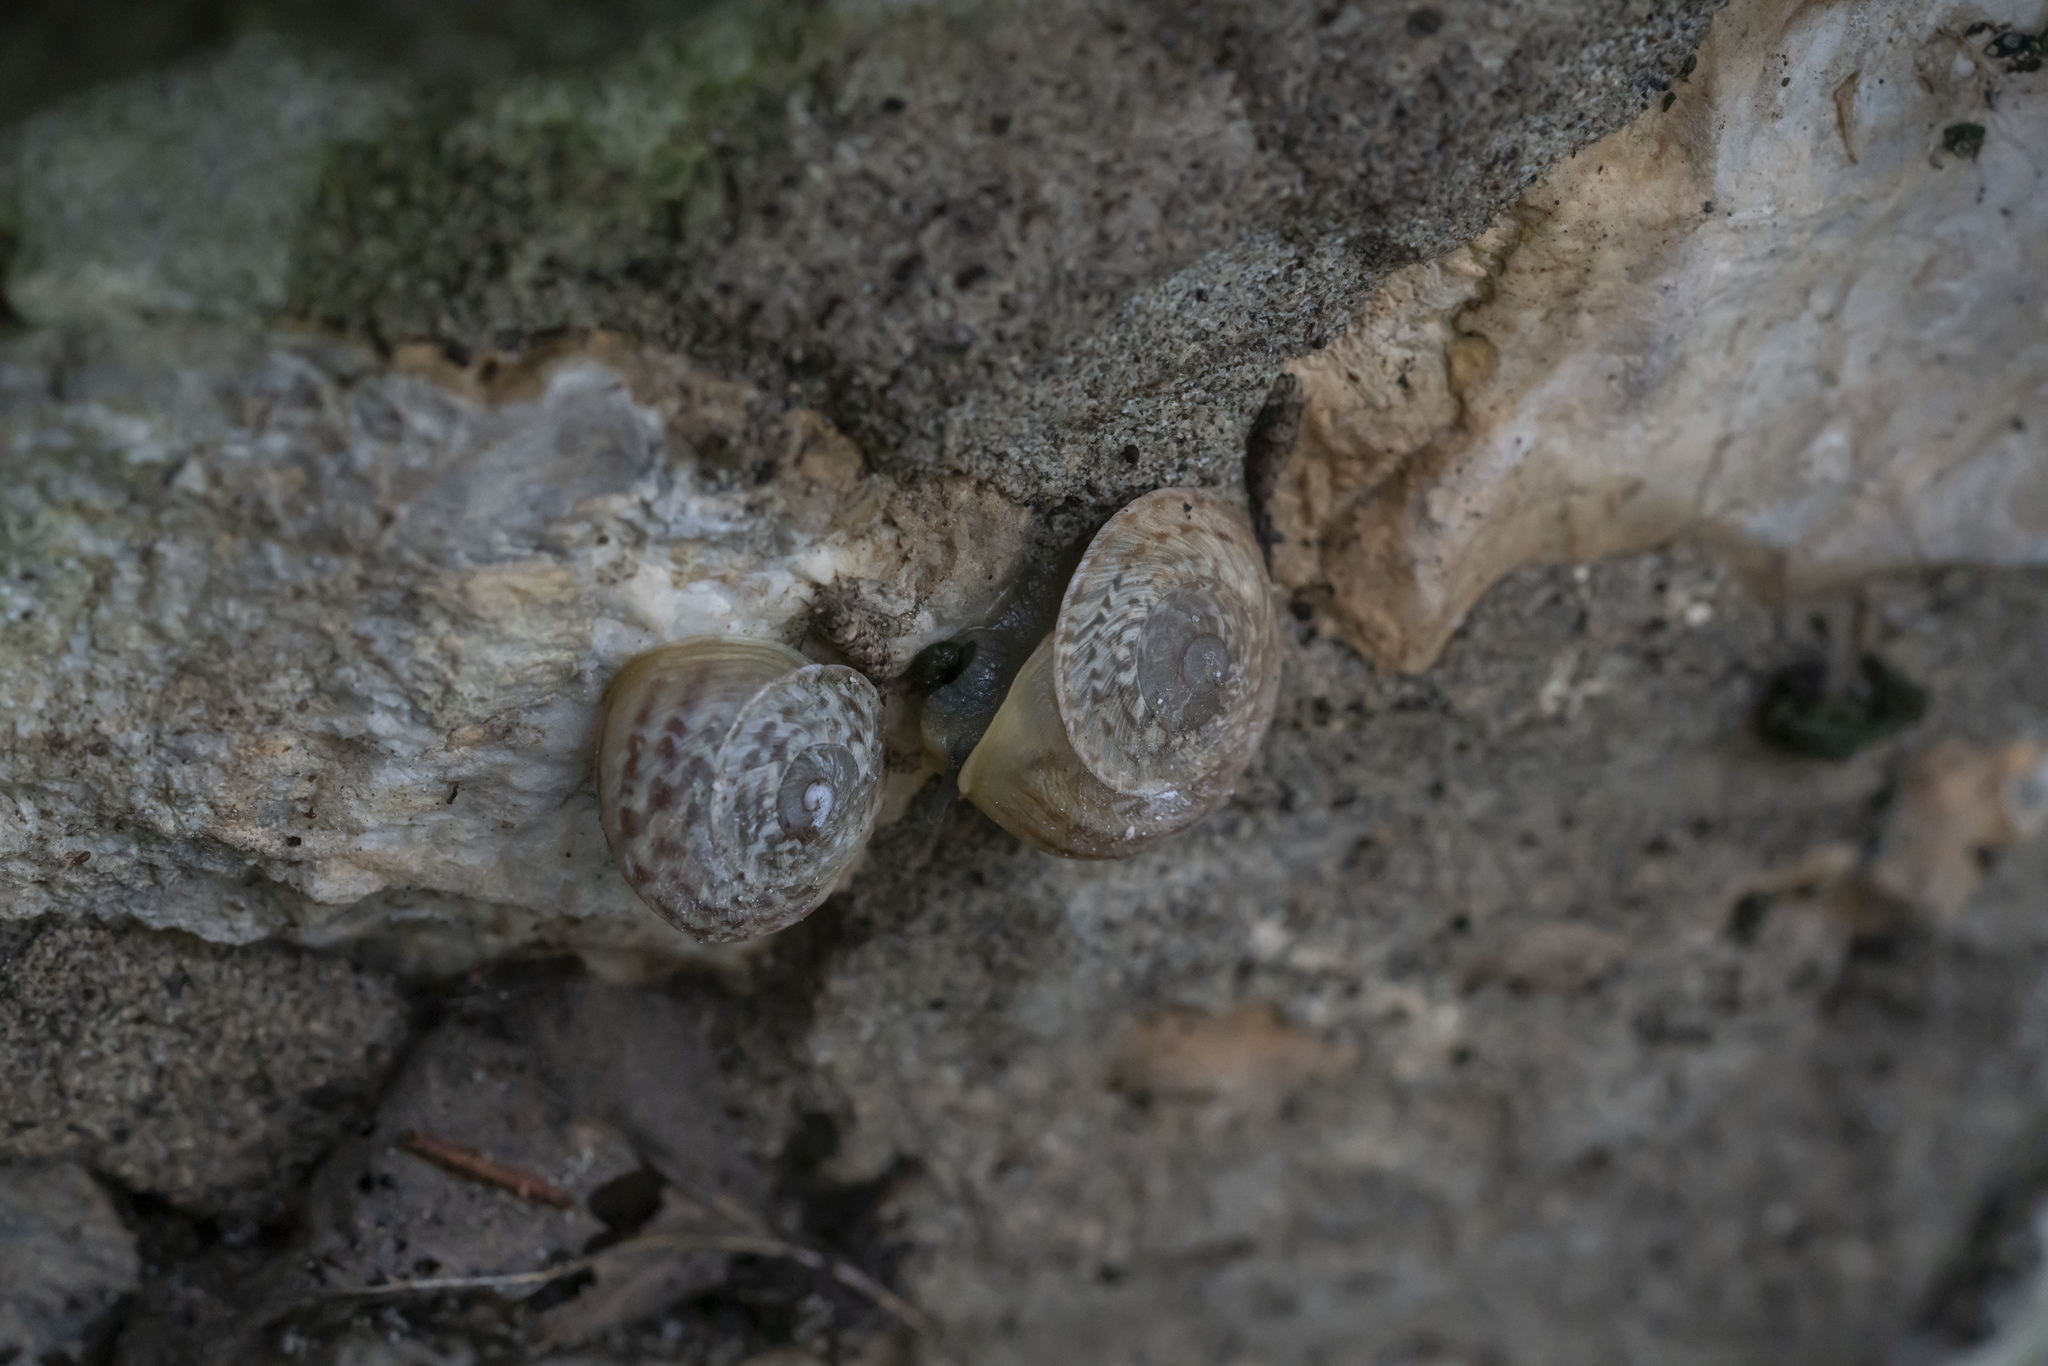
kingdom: Animalia
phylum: Mollusca
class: Gastropoda
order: Stylommatophora
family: Helicidae
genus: Levantina
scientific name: Levantina spiriplana
